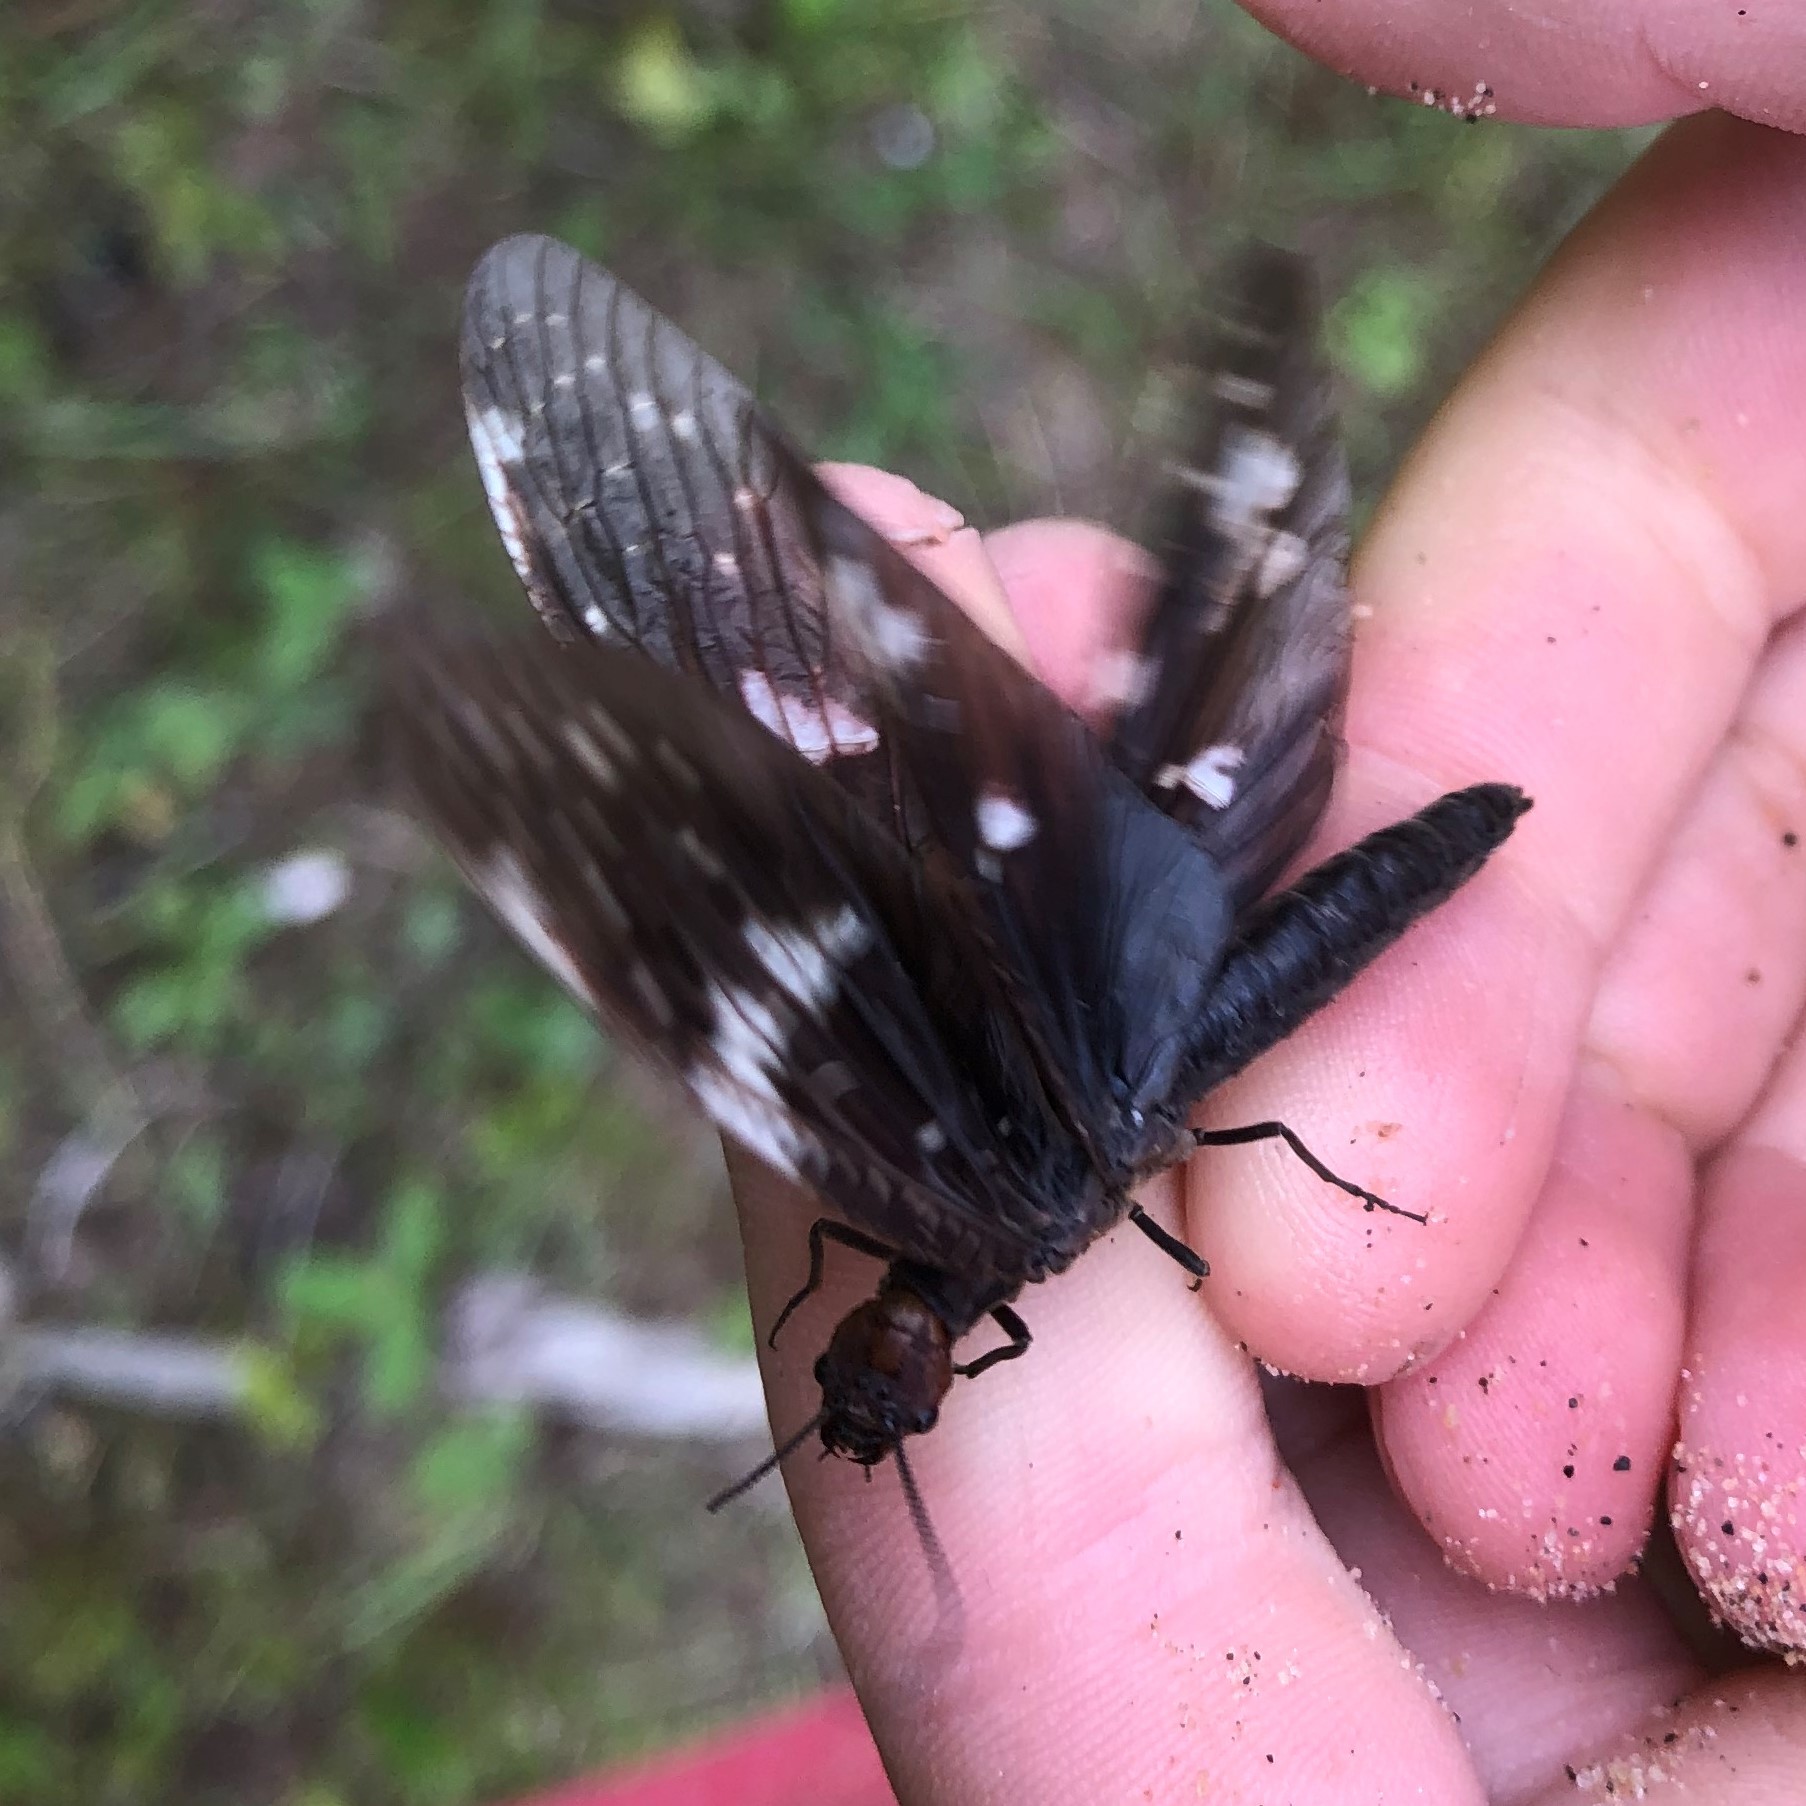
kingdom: Animalia
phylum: Arthropoda
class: Insecta
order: Megaloptera
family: Corydalidae
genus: Nigronia
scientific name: Nigronia serricornis
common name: Serrate dark fishfly
